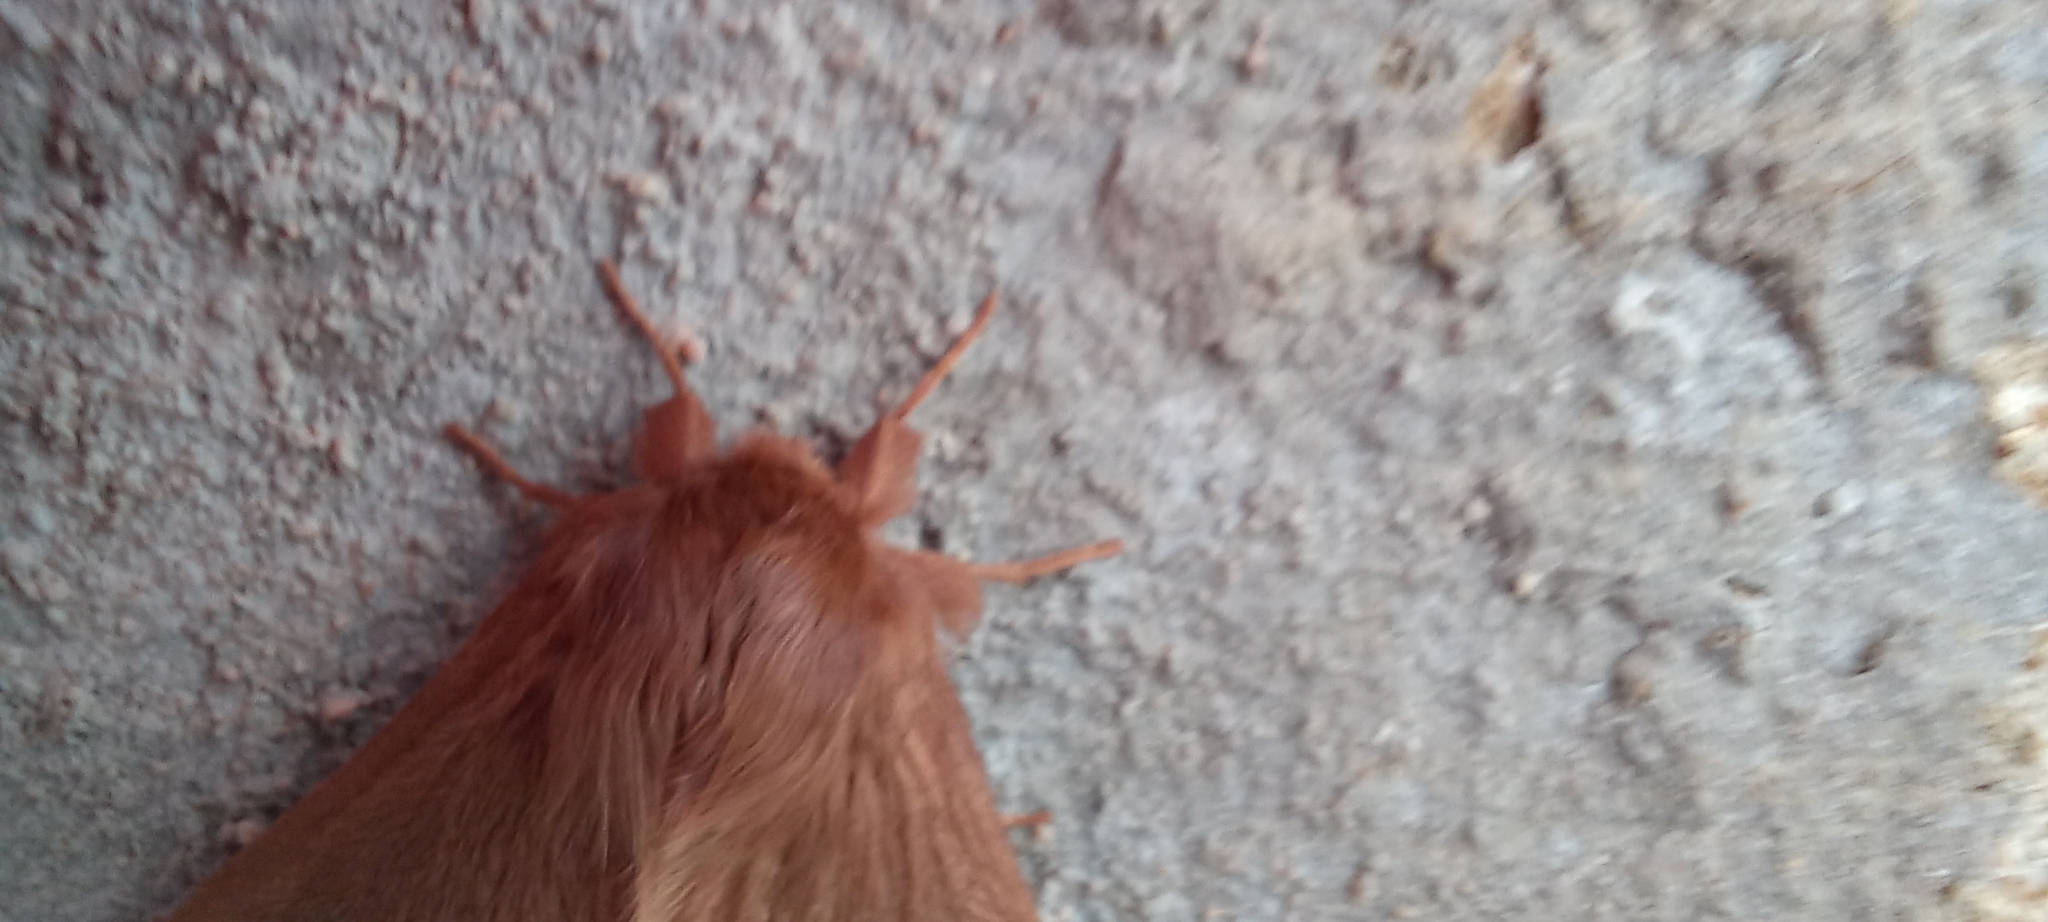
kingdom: Animalia
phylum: Arthropoda
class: Insecta
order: Lepidoptera
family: Eupterotidae
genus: Phyllalia
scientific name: Phyllalia patens
